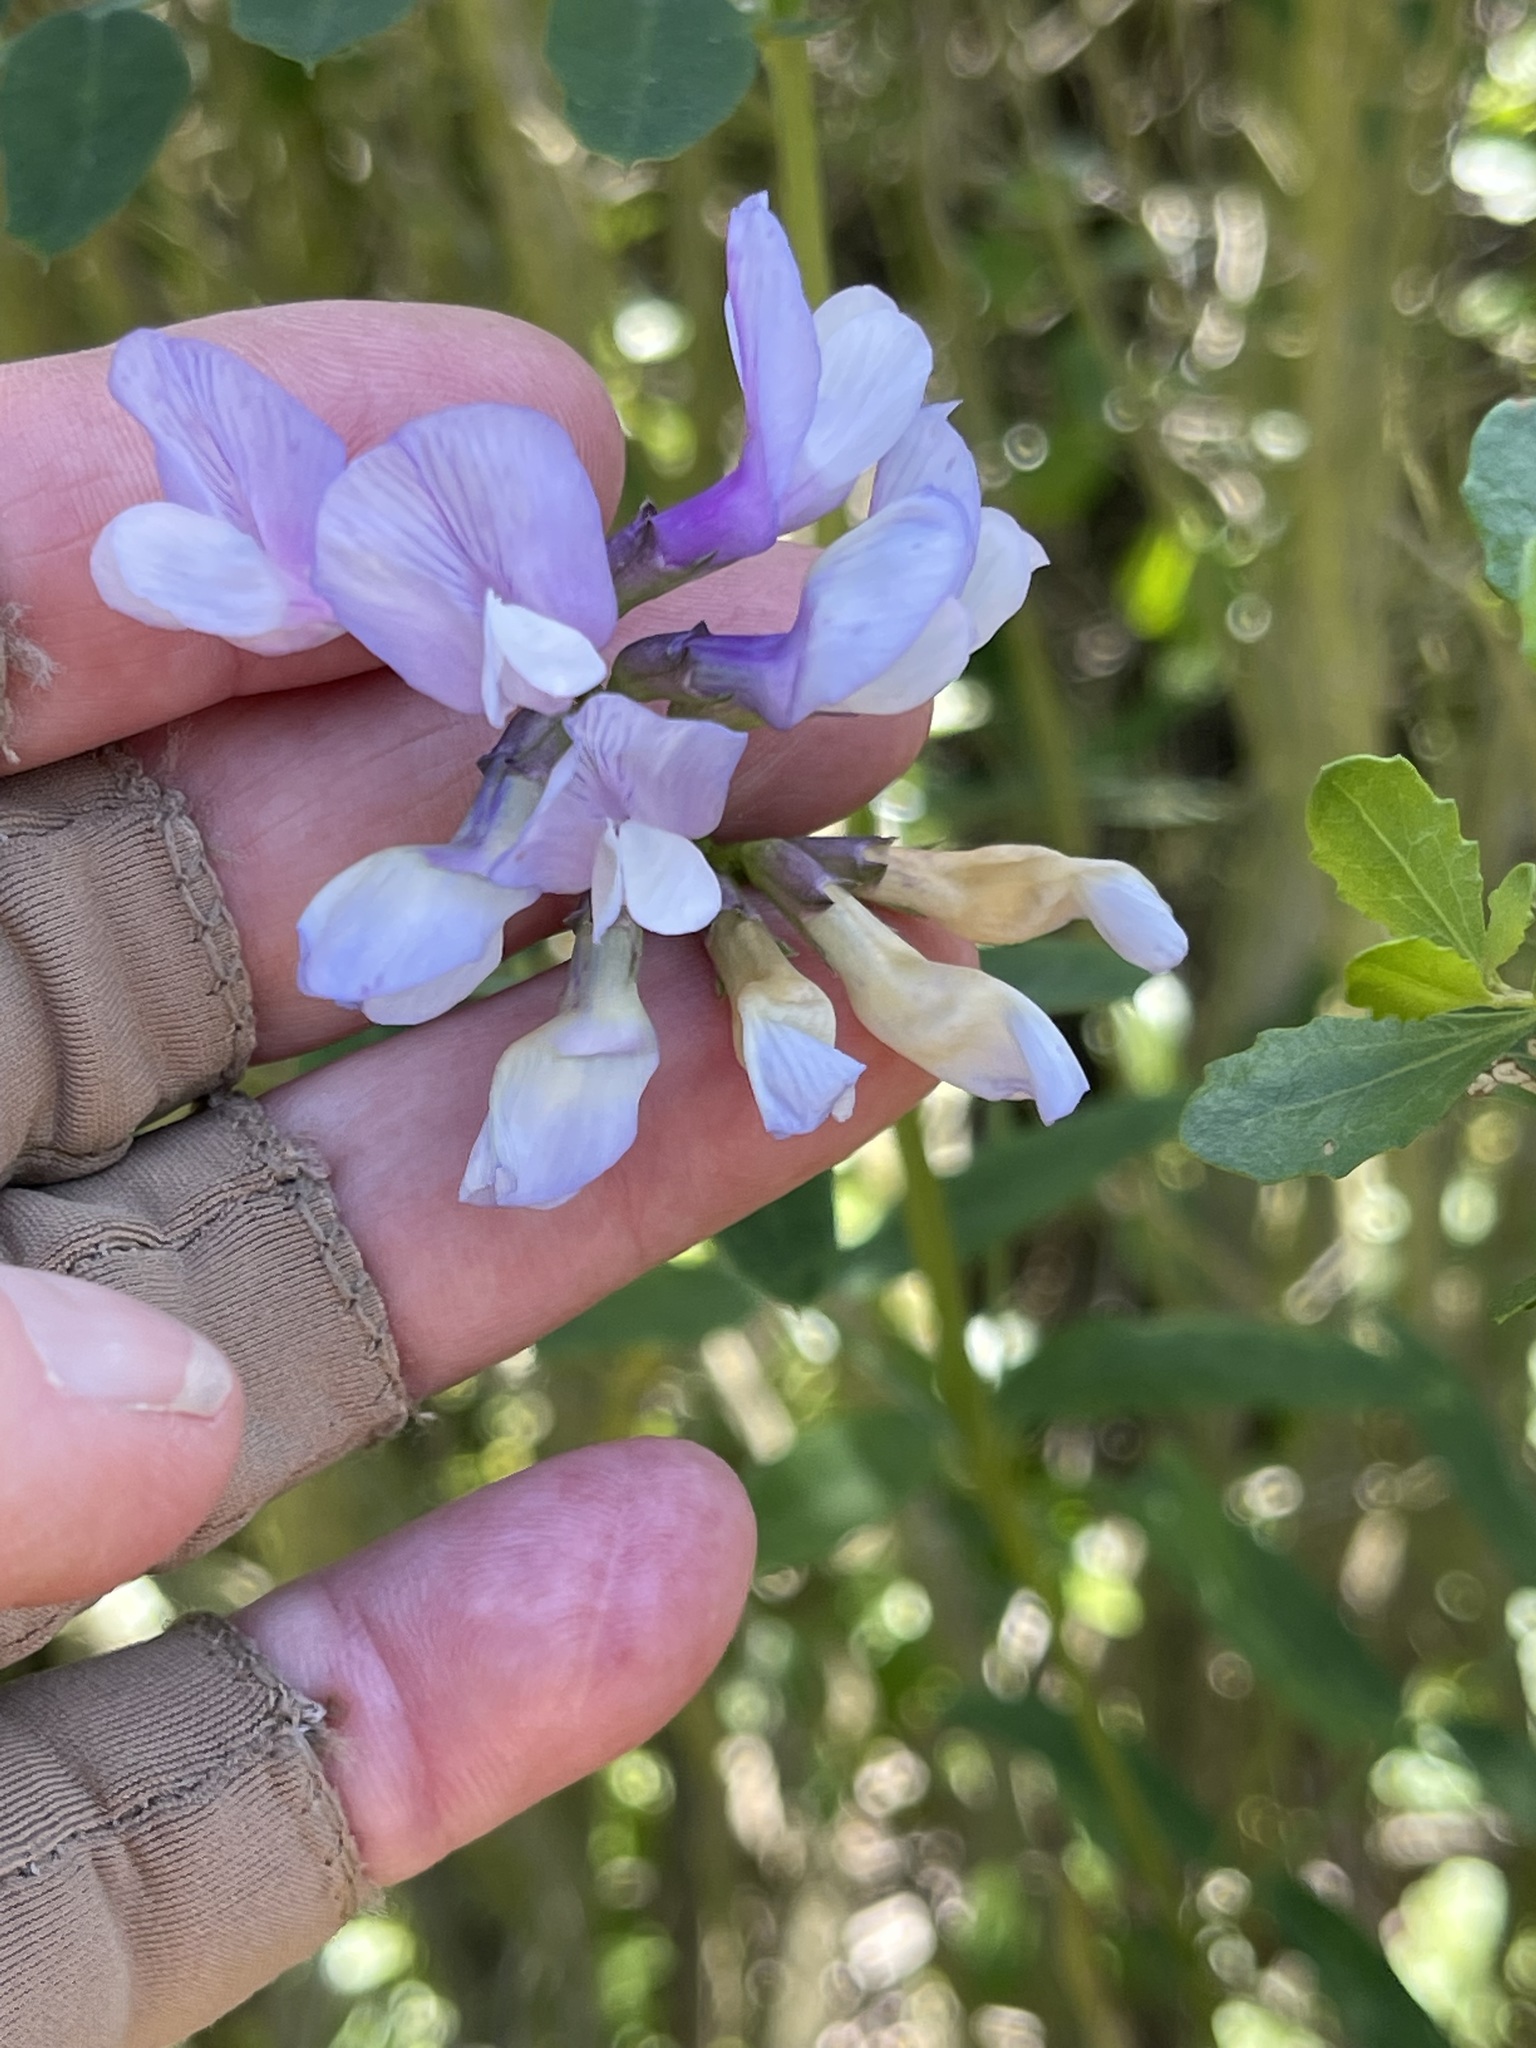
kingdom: Plantae
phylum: Tracheophyta
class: Magnoliopsida
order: Fabales
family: Fabaceae
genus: Vicia
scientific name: Vicia americana
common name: American vetch
